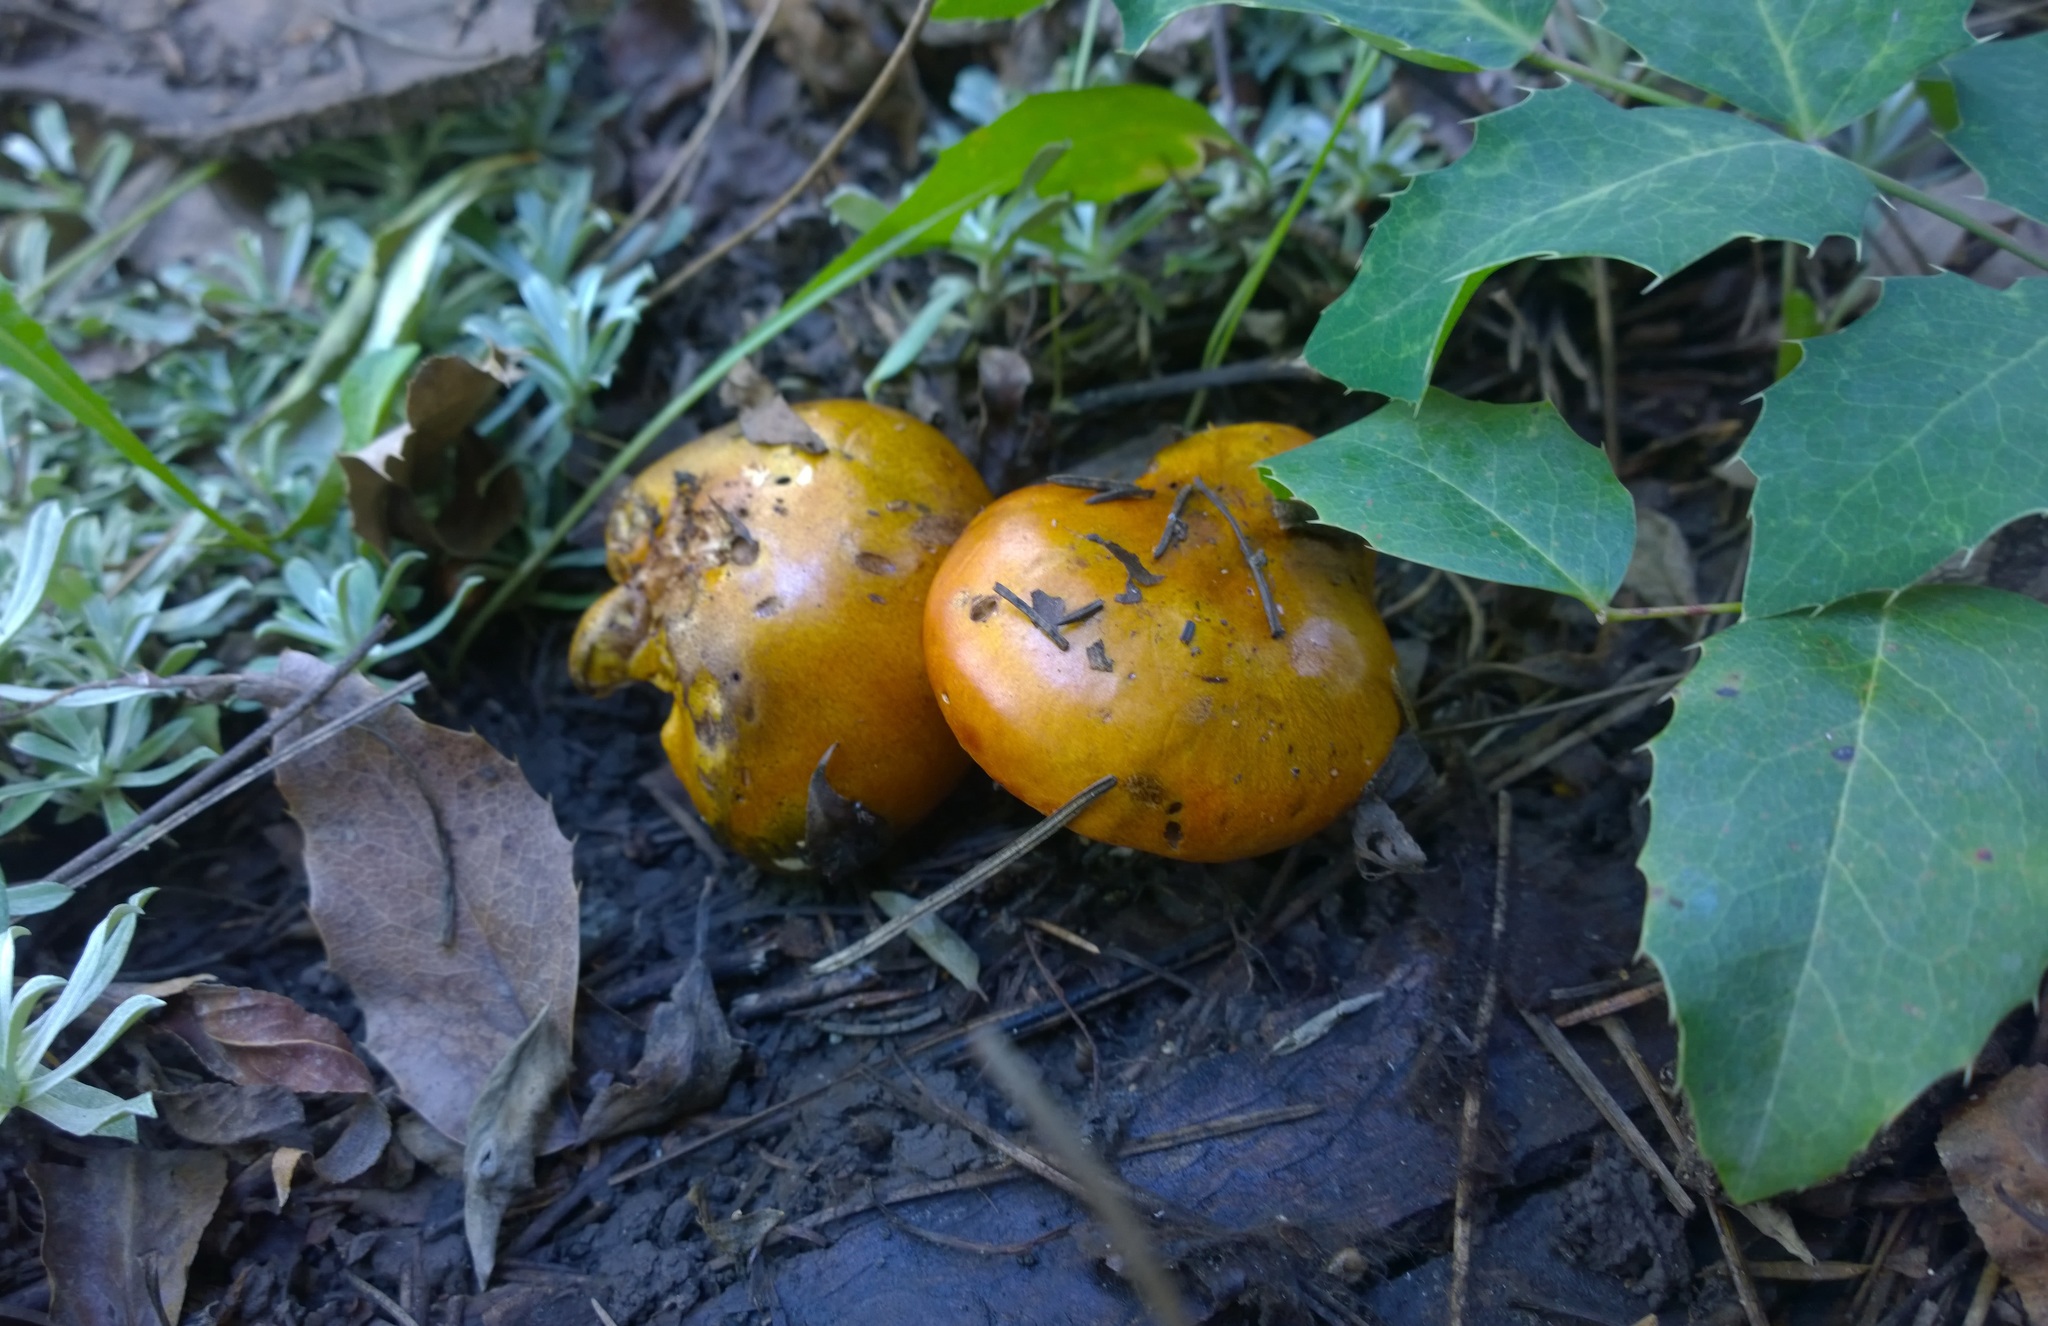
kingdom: Fungi
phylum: Basidiomycota
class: Agaricomycetes
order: Agaricales
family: Tricholomataceae
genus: Tricholoma
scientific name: Tricholoma aurantium
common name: Orange knight
